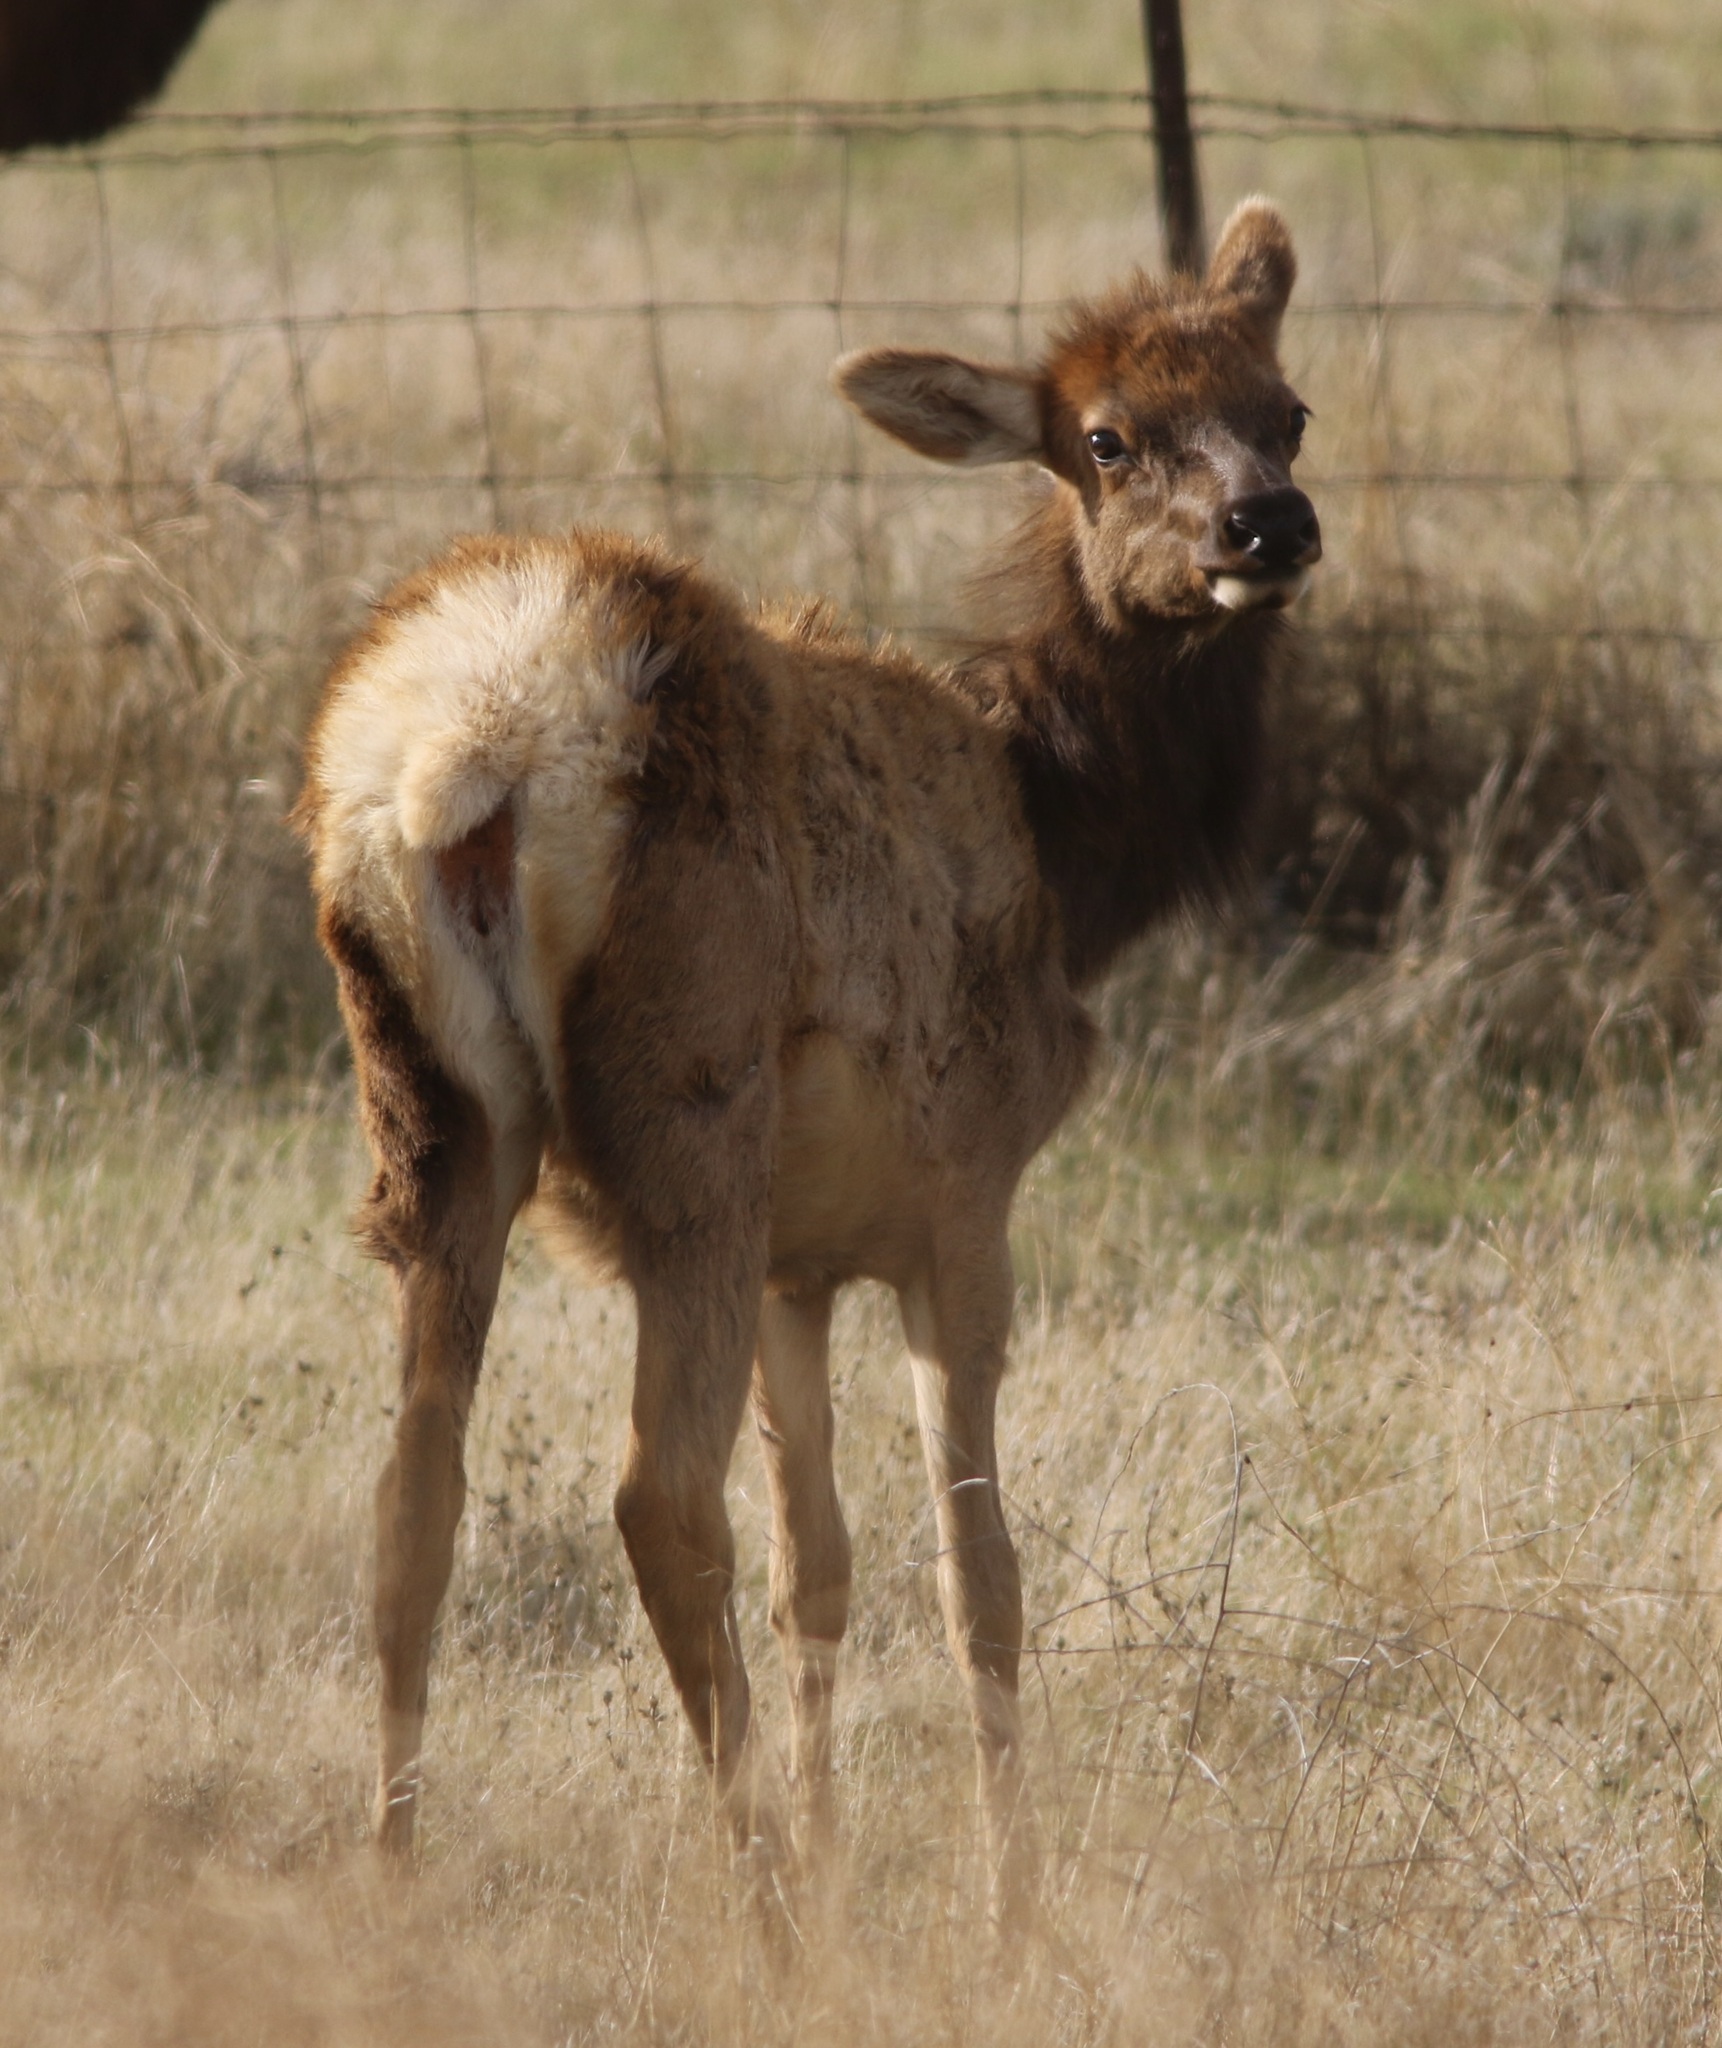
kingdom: Animalia
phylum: Chordata
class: Mammalia
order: Artiodactyla
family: Cervidae
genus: Cervus
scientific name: Cervus elaphus
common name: Red deer
